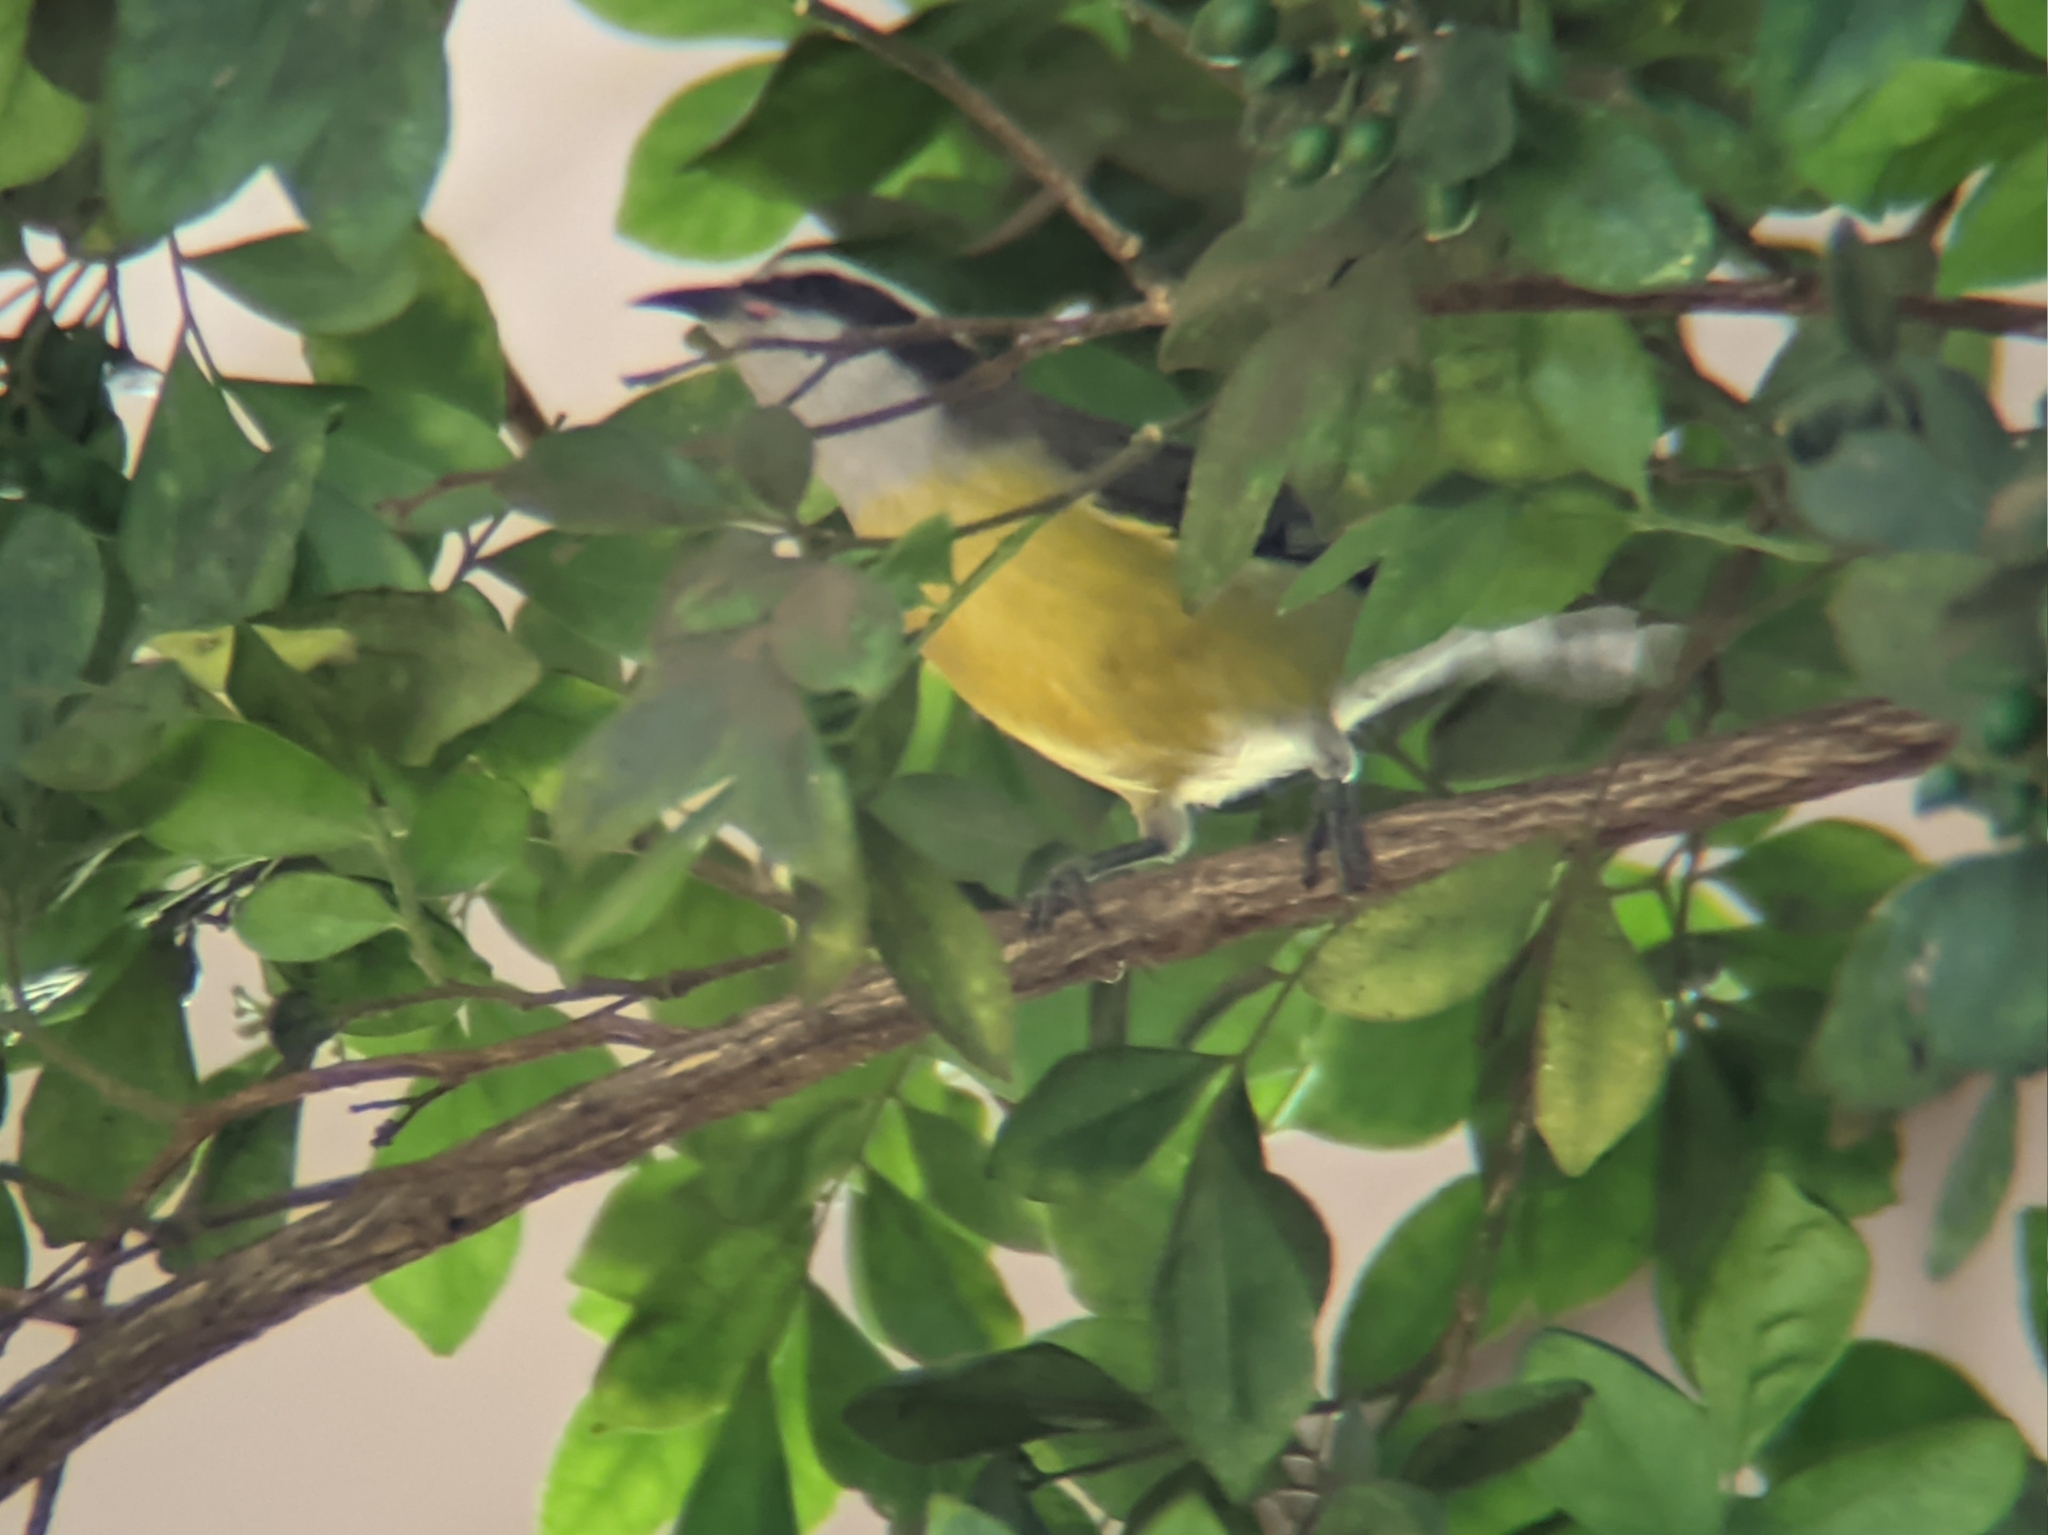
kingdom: Animalia
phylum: Chordata
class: Aves
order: Passeriformes
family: Thraupidae
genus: Coereba
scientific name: Coereba flaveola
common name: Bananaquit
